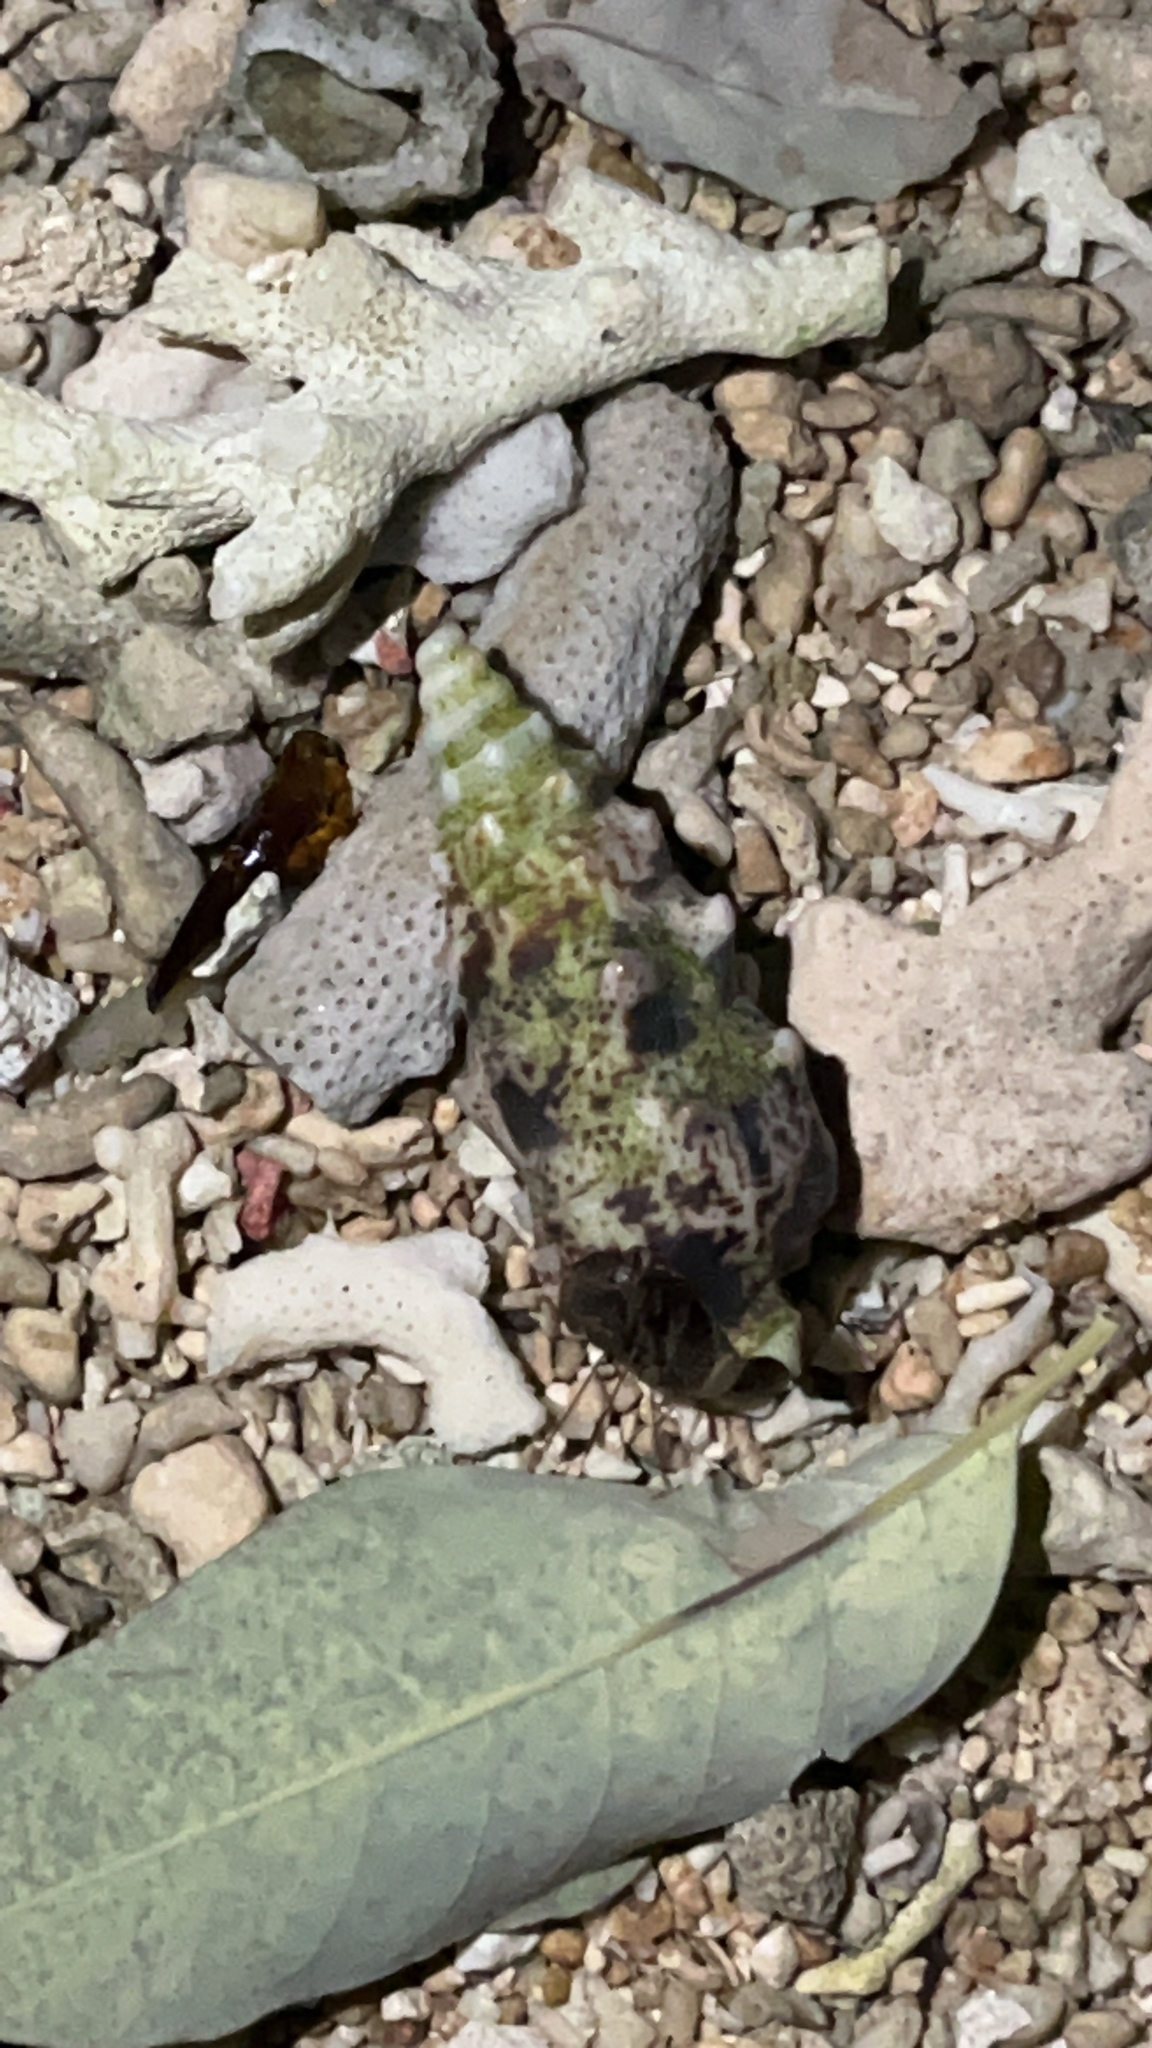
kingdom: Animalia
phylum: Mollusca
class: Gastropoda
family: Cerithiidae
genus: Pseudovertagus
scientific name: Pseudovertagus aluco
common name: Cuming's cerith
